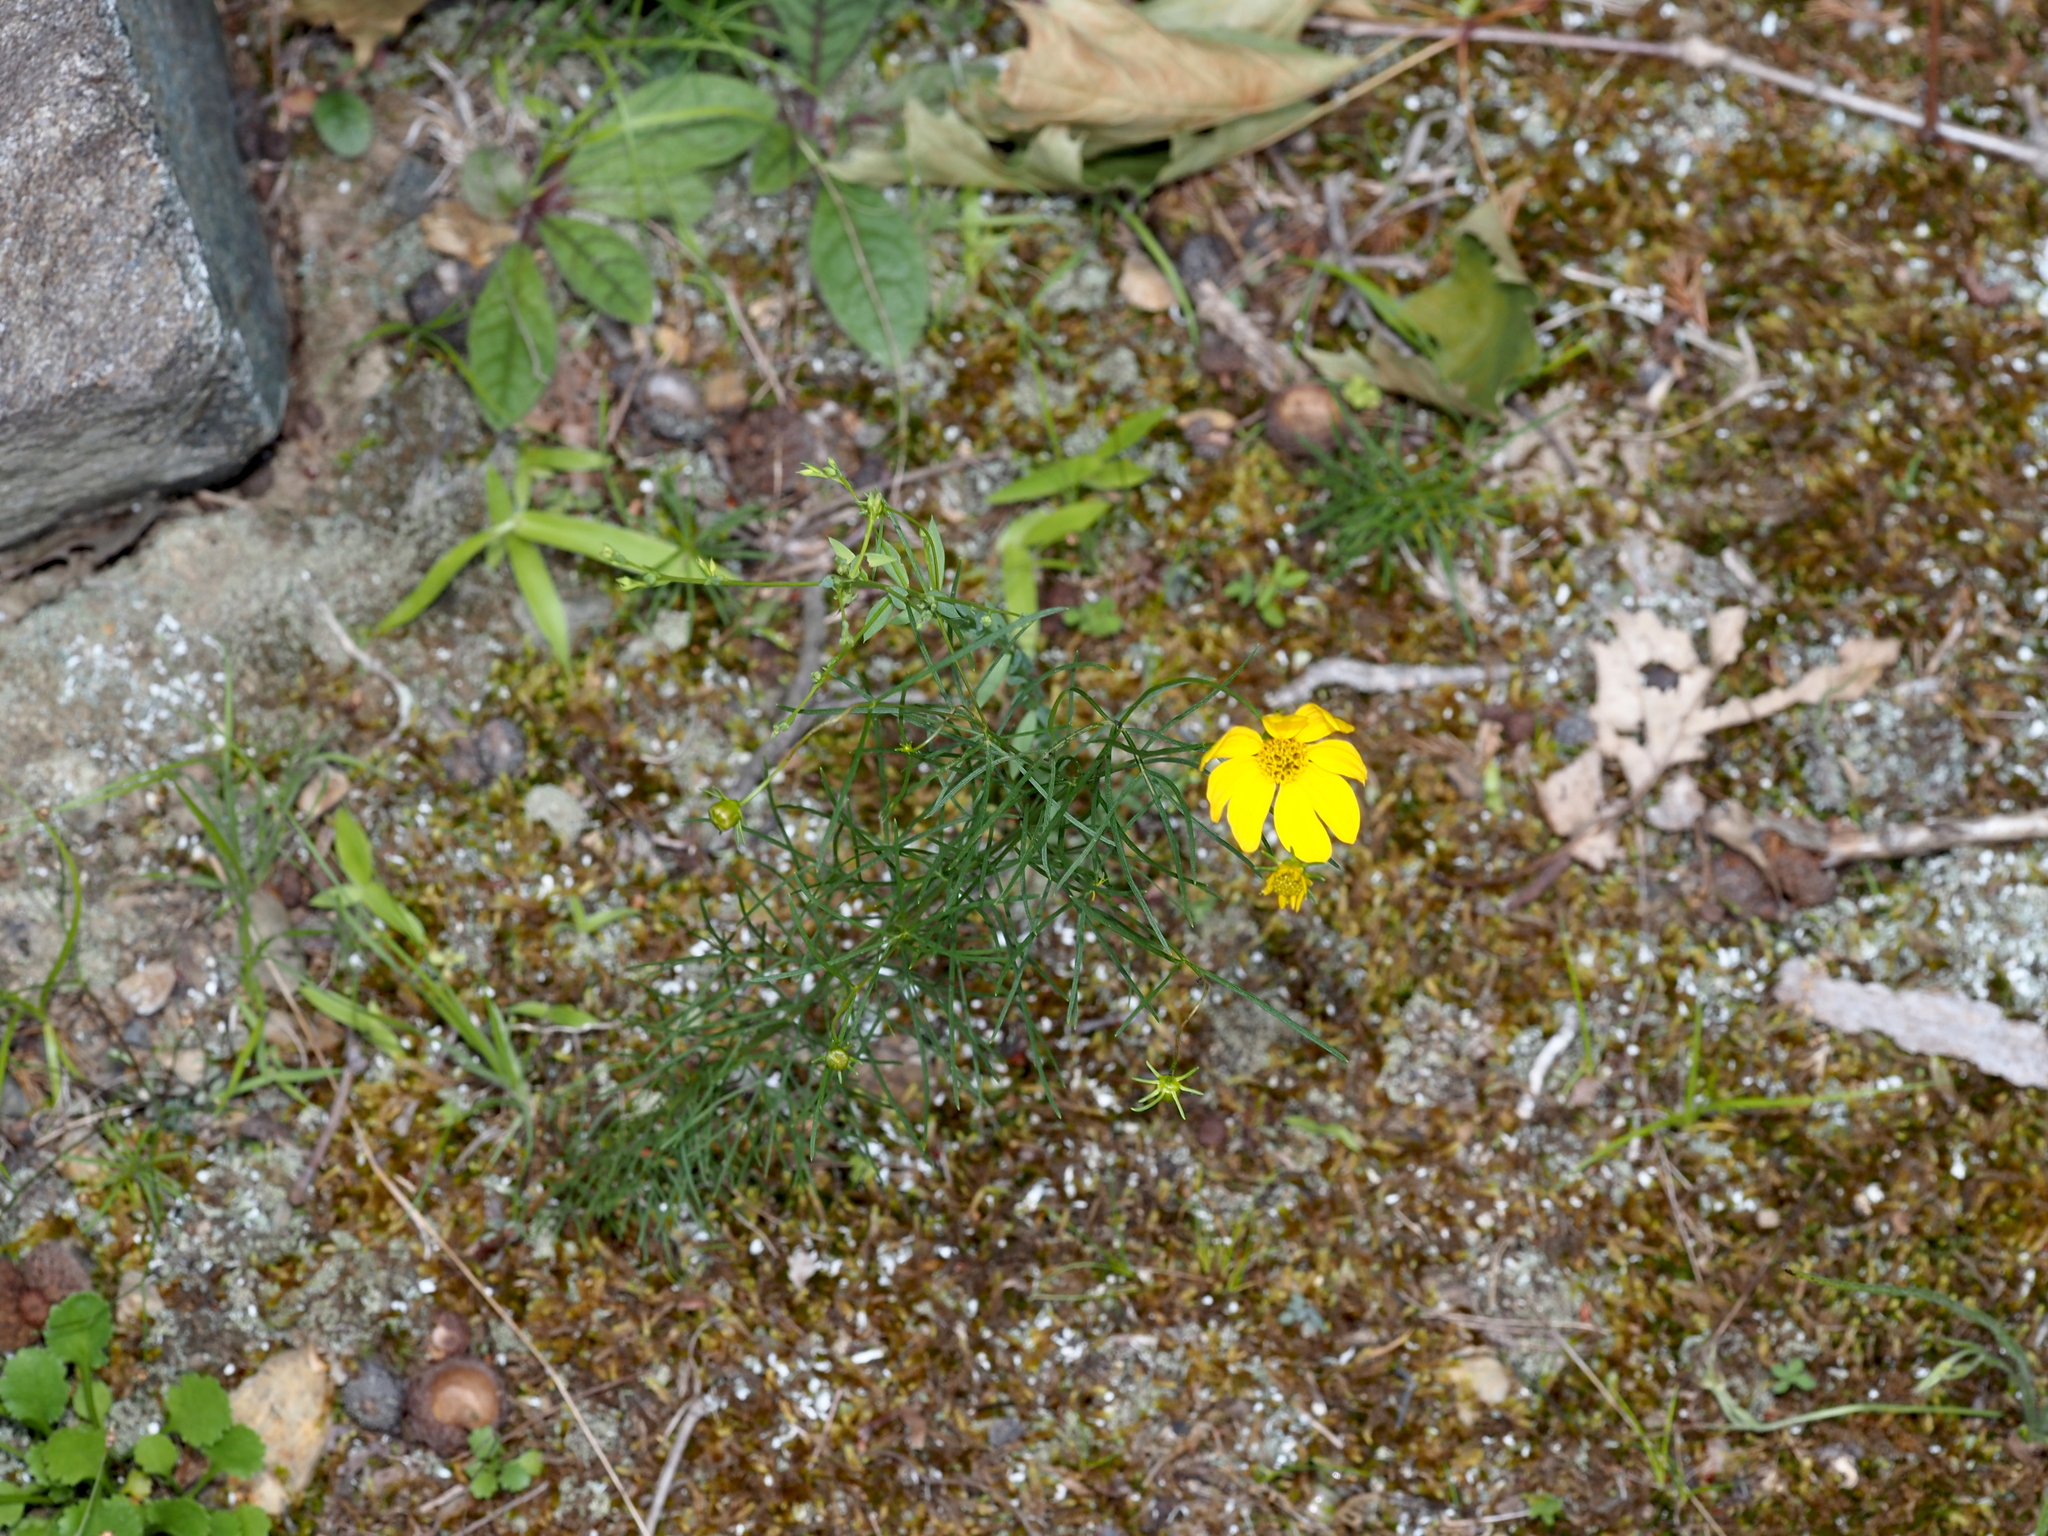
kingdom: Plantae
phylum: Tracheophyta
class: Magnoliopsida
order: Asterales
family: Asteraceae
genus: Coreopsis
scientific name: Coreopsis verticillata
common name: Whorled tickseed
